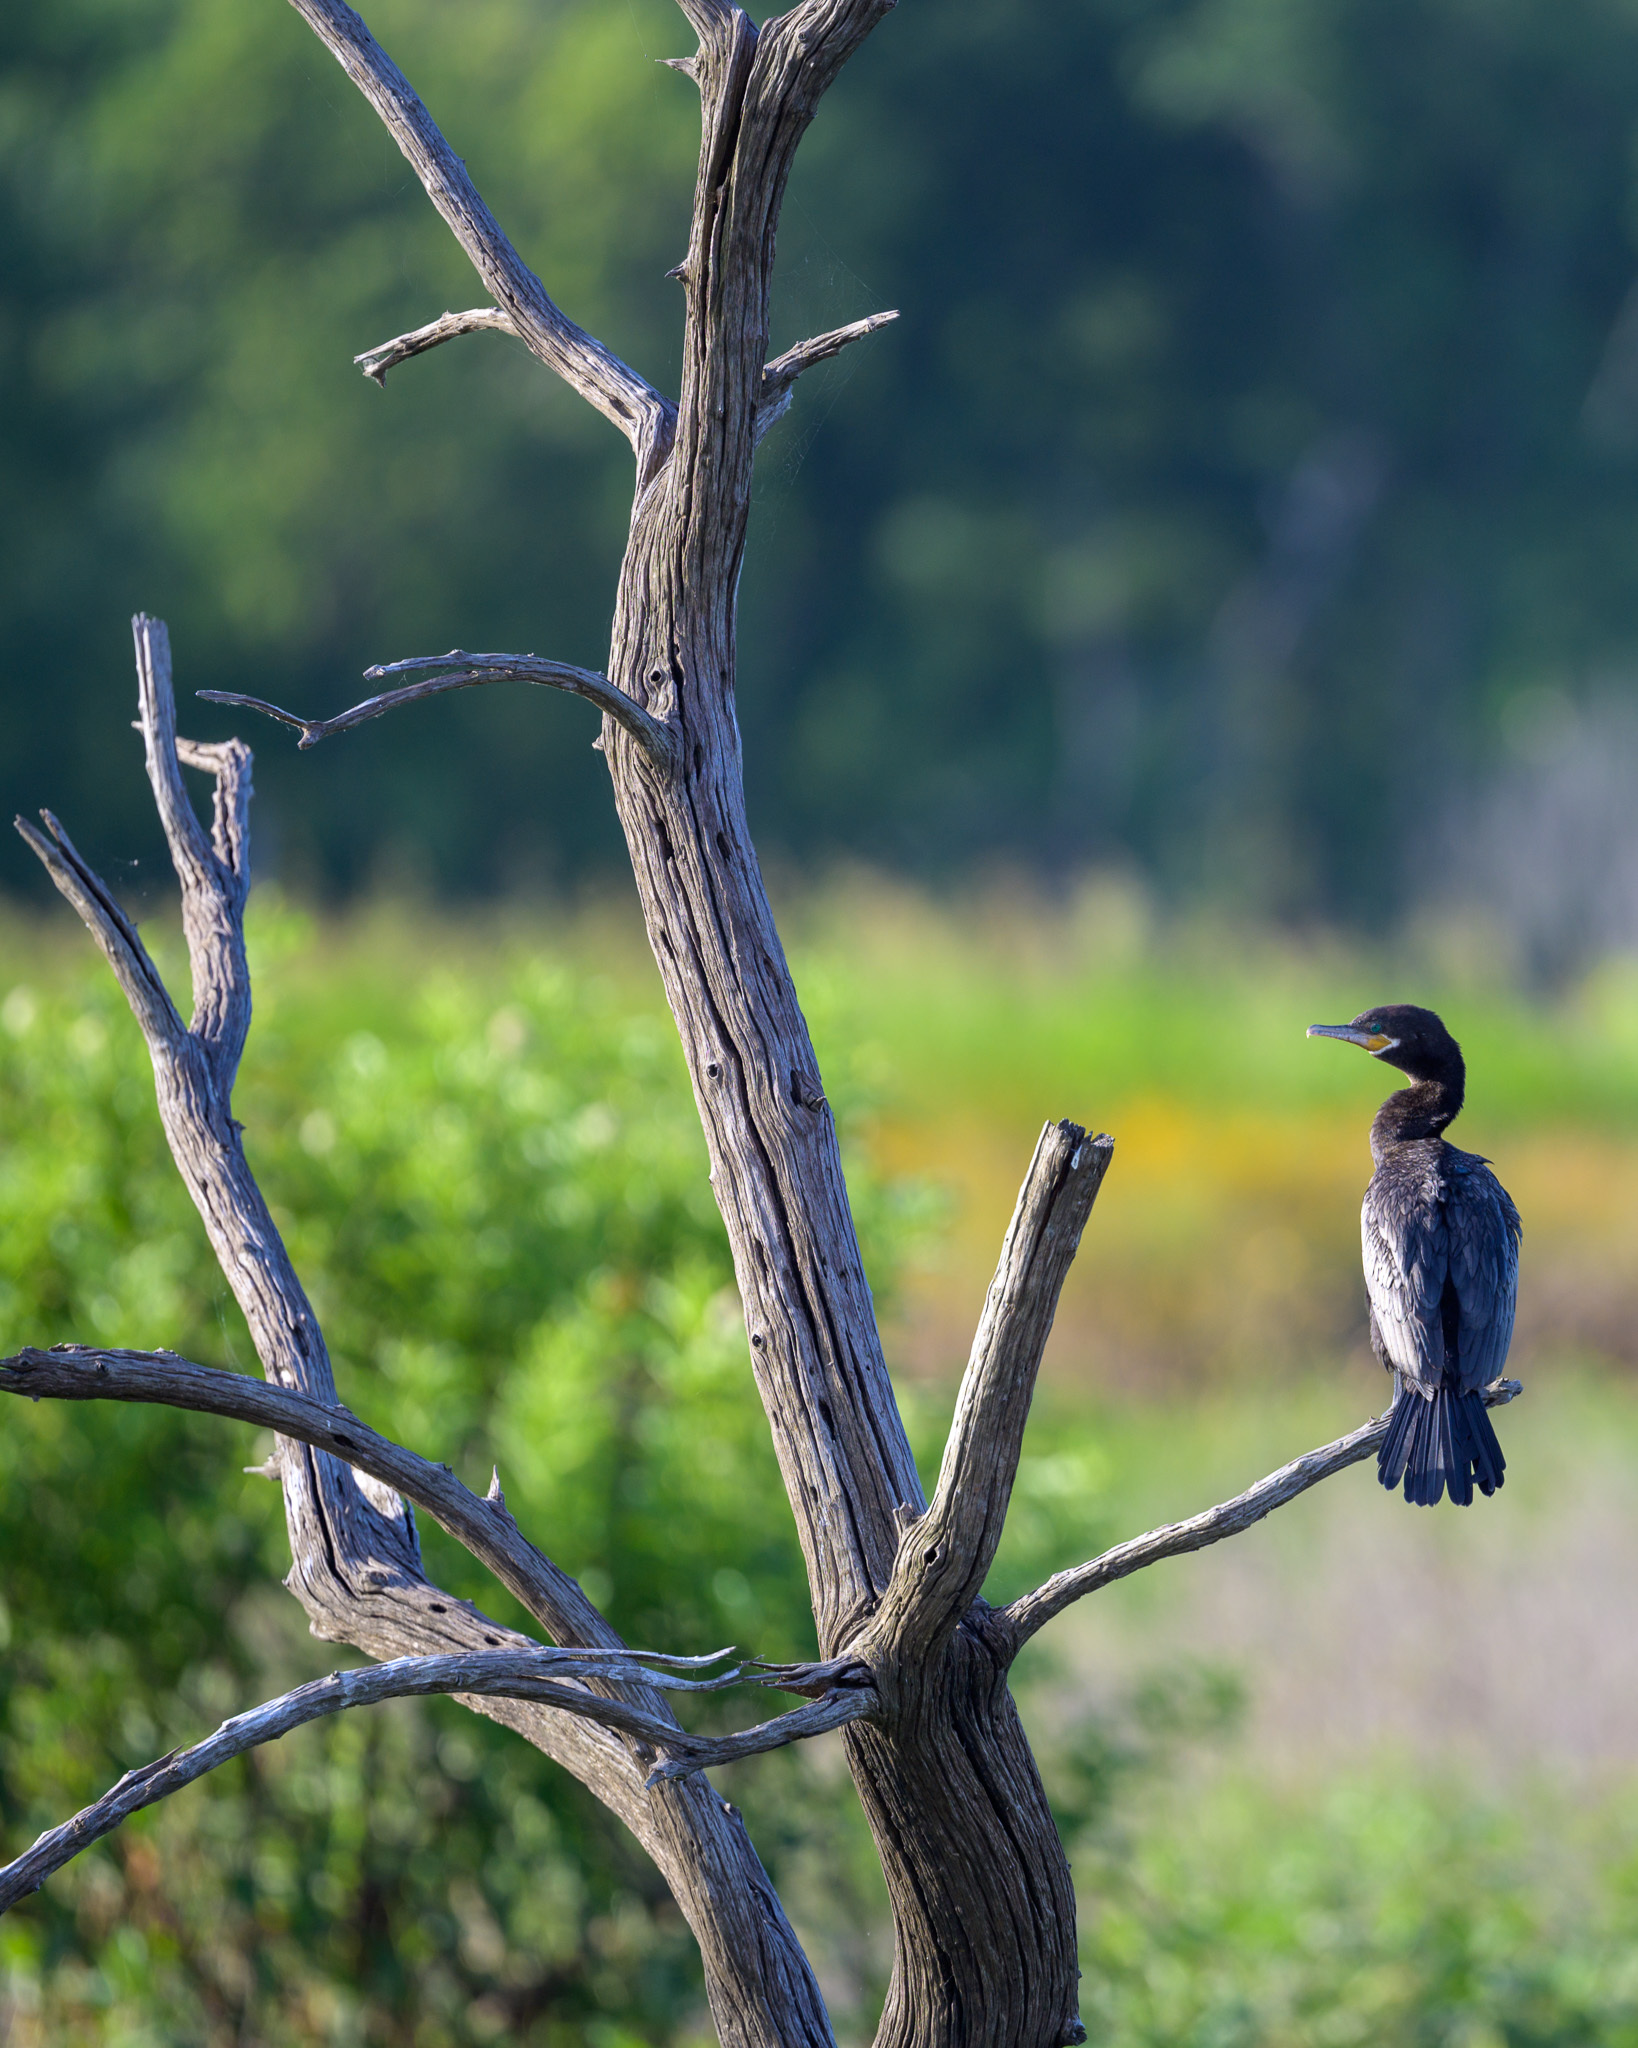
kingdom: Animalia
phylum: Chordata
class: Aves
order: Suliformes
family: Phalacrocoracidae
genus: Phalacrocorax
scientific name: Phalacrocorax brasilianus
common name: Neotropic cormorant
